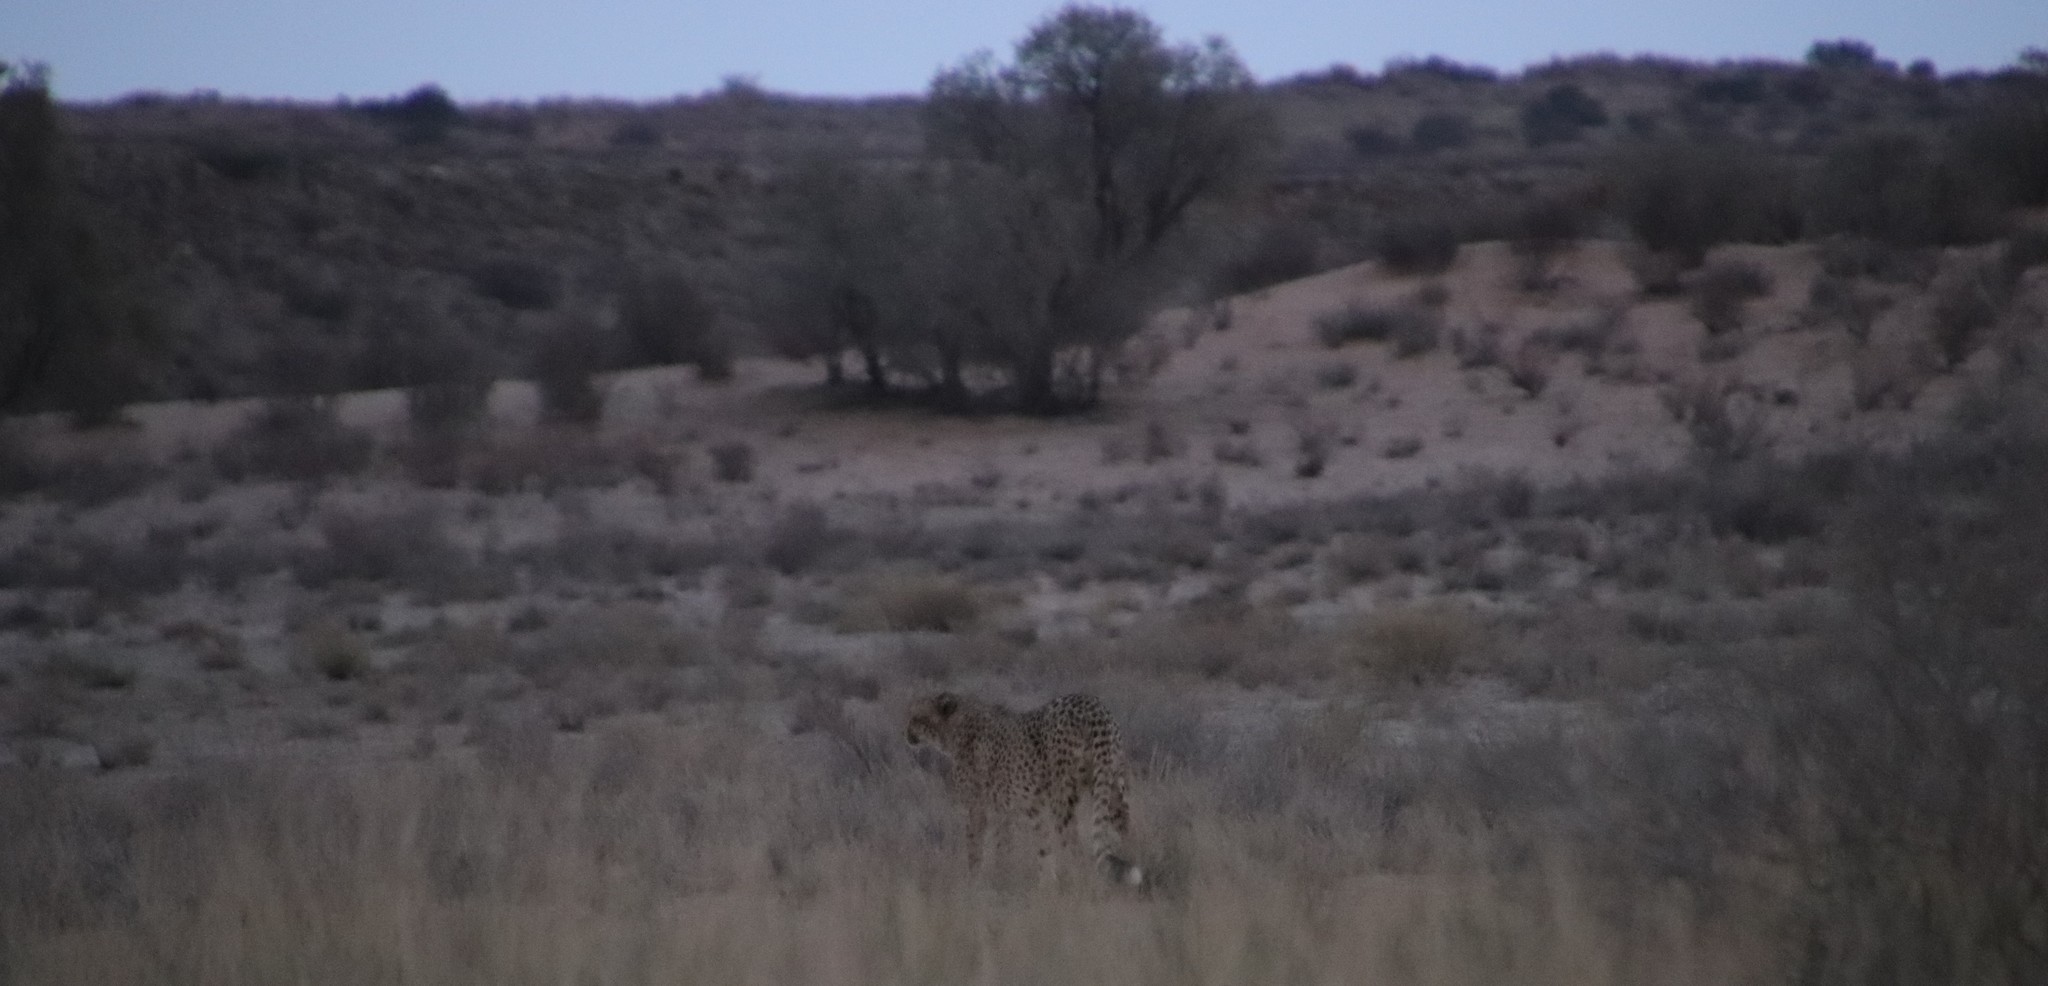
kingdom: Animalia
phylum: Chordata
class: Mammalia
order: Carnivora
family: Felidae
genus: Acinonyx
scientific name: Acinonyx jubatus
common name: Cheetah
